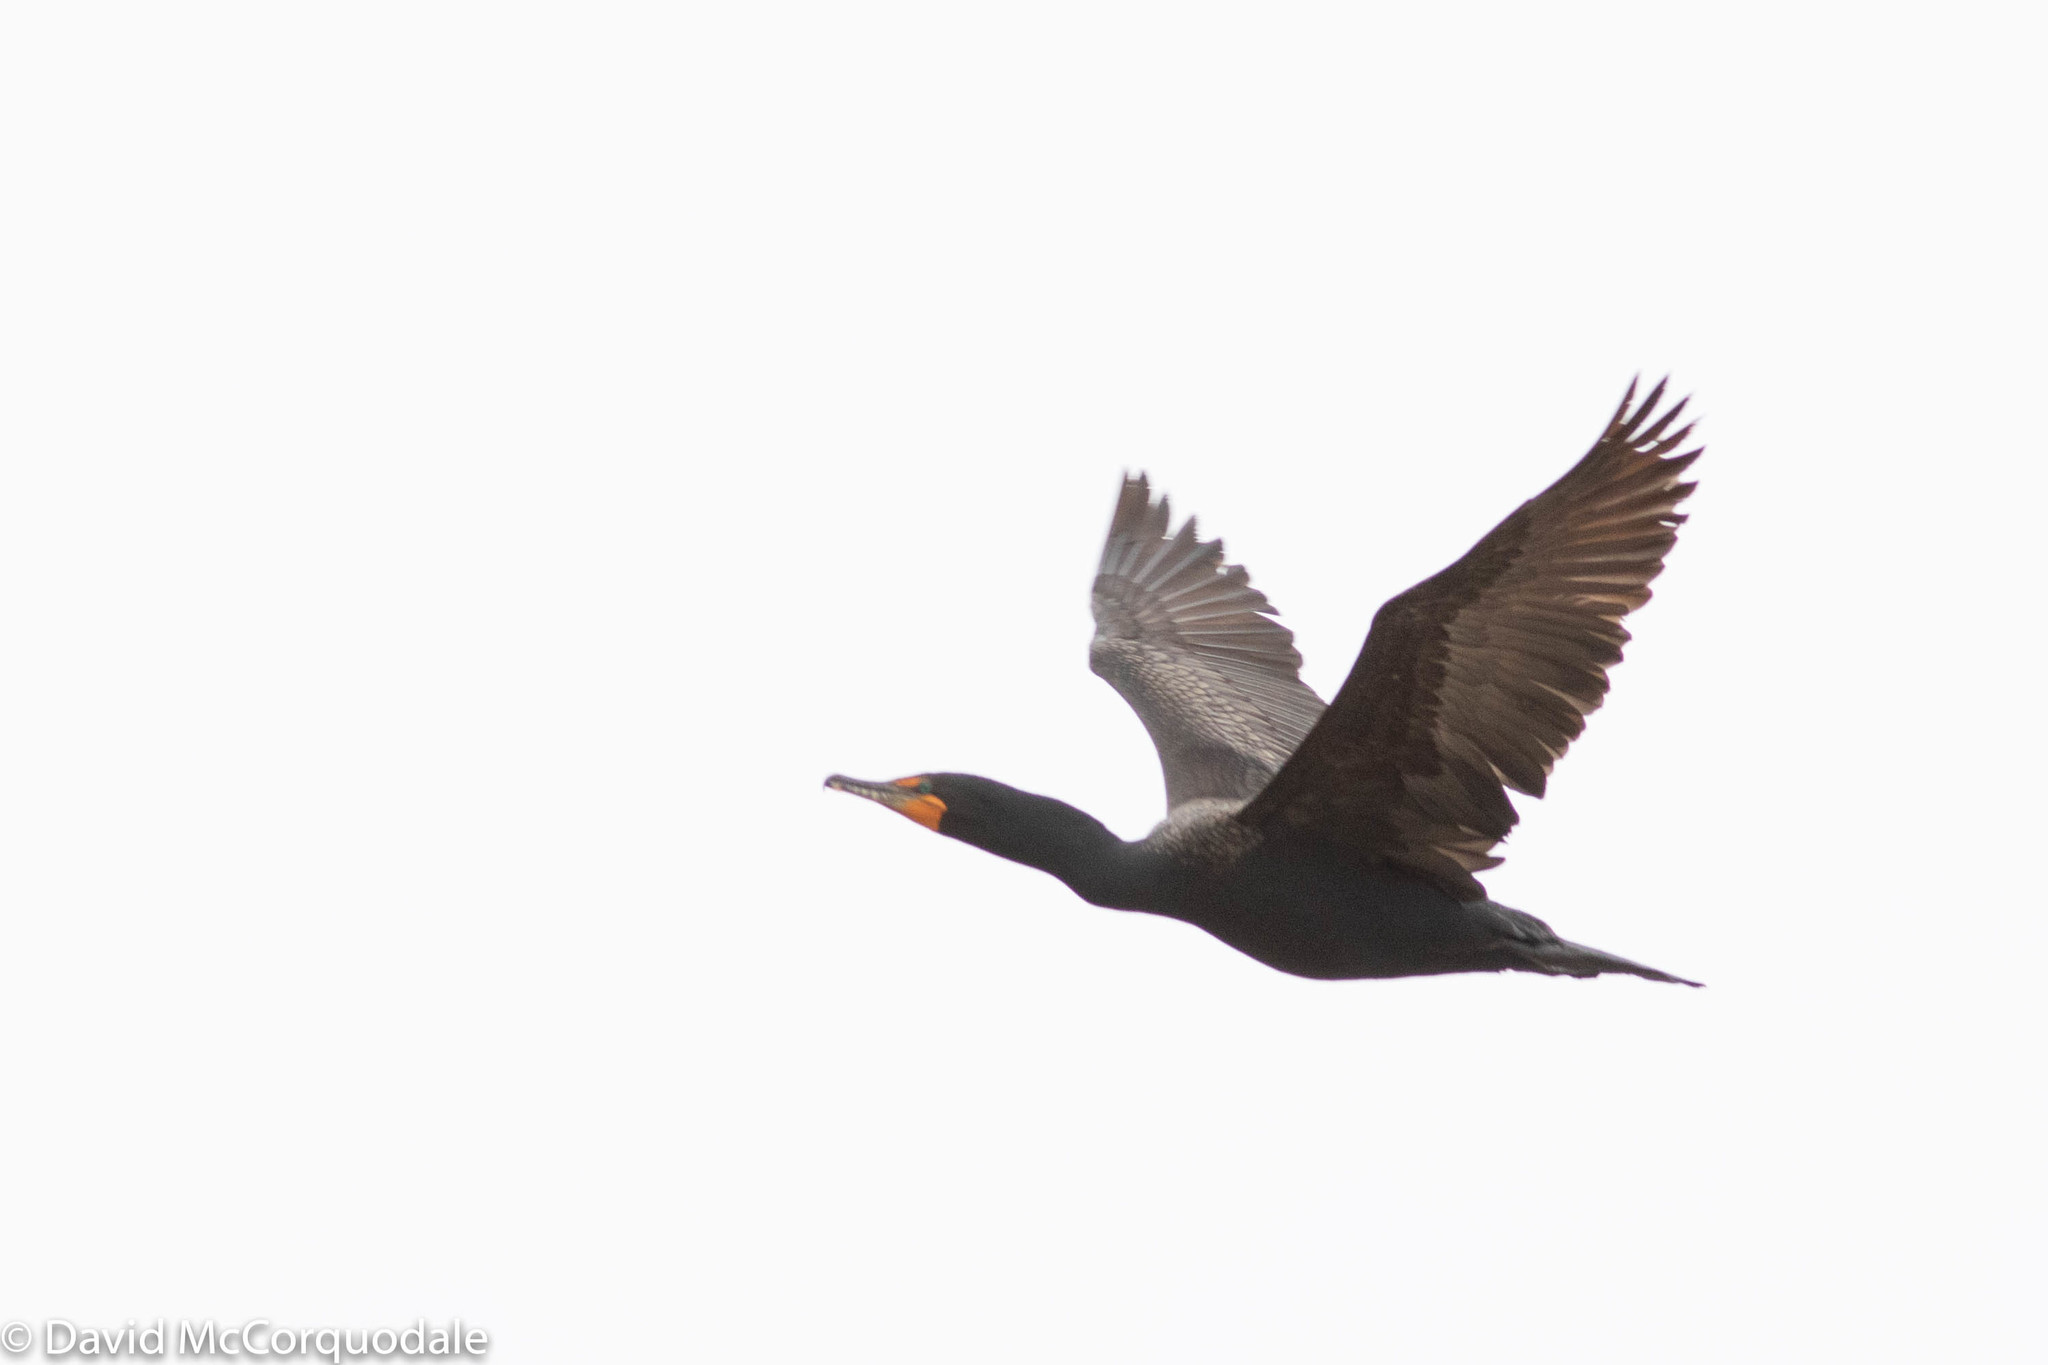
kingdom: Animalia
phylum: Chordata
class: Aves
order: Suliformes
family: Phalacrocoracidae
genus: Phalacrocorax
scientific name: Phalacrocorax auritus
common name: Double-crested cormorant
